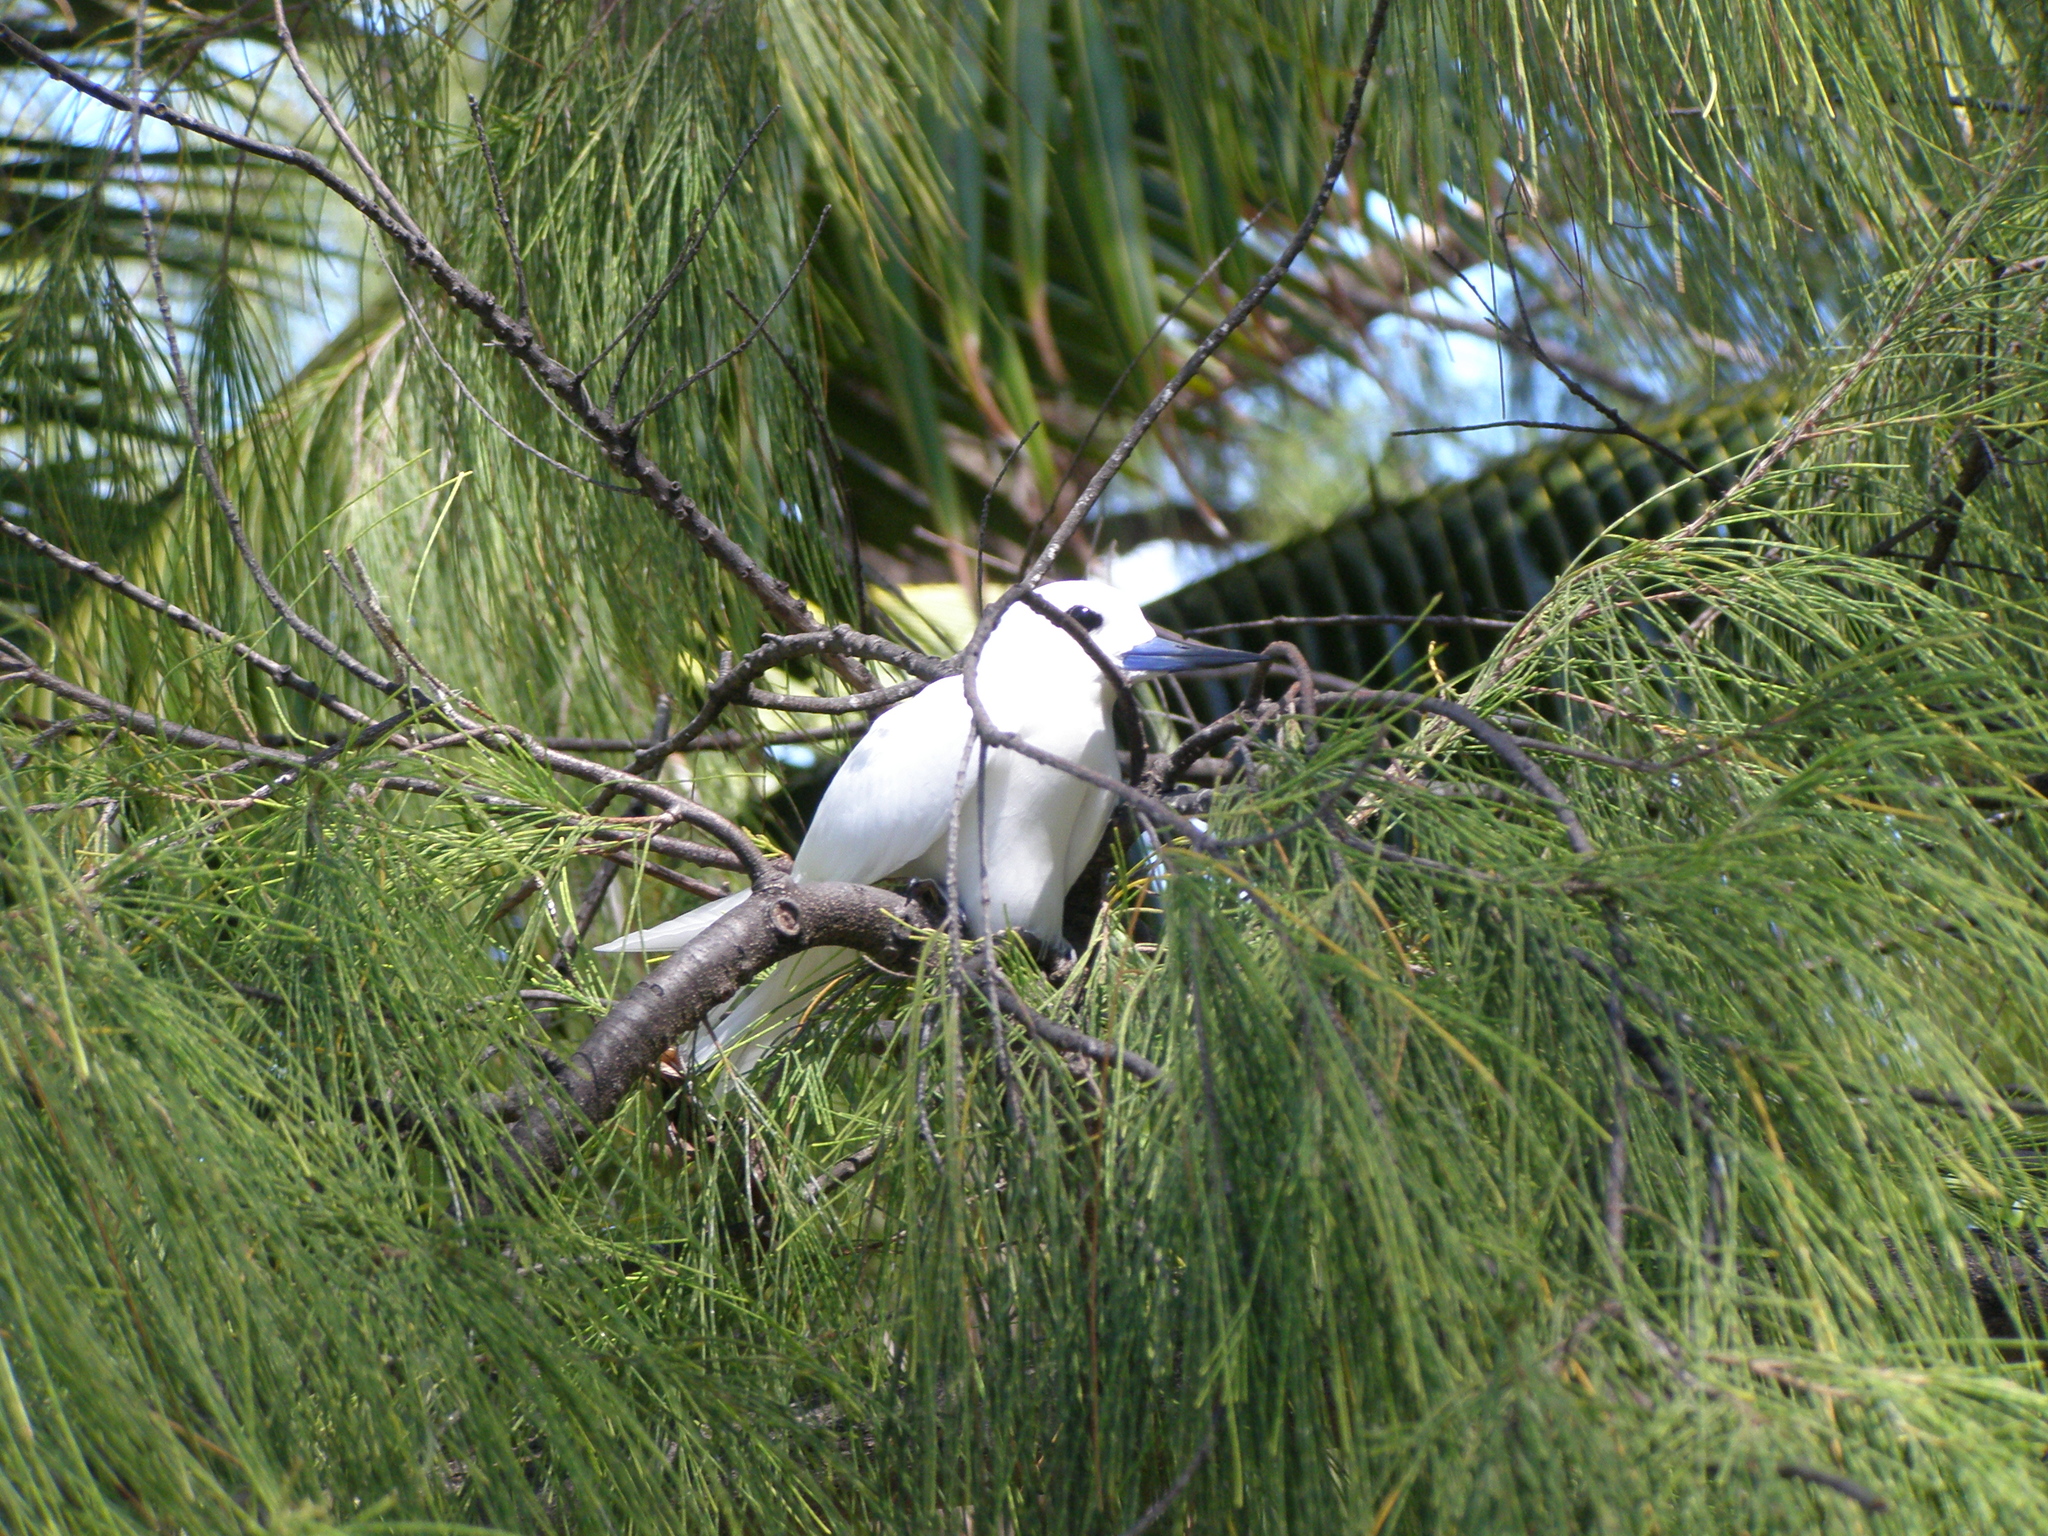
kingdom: Animalia
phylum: Chordata
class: Aves
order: Charadriiformes
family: Laridae
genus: Gygis
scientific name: Gygis alba
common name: White tern
